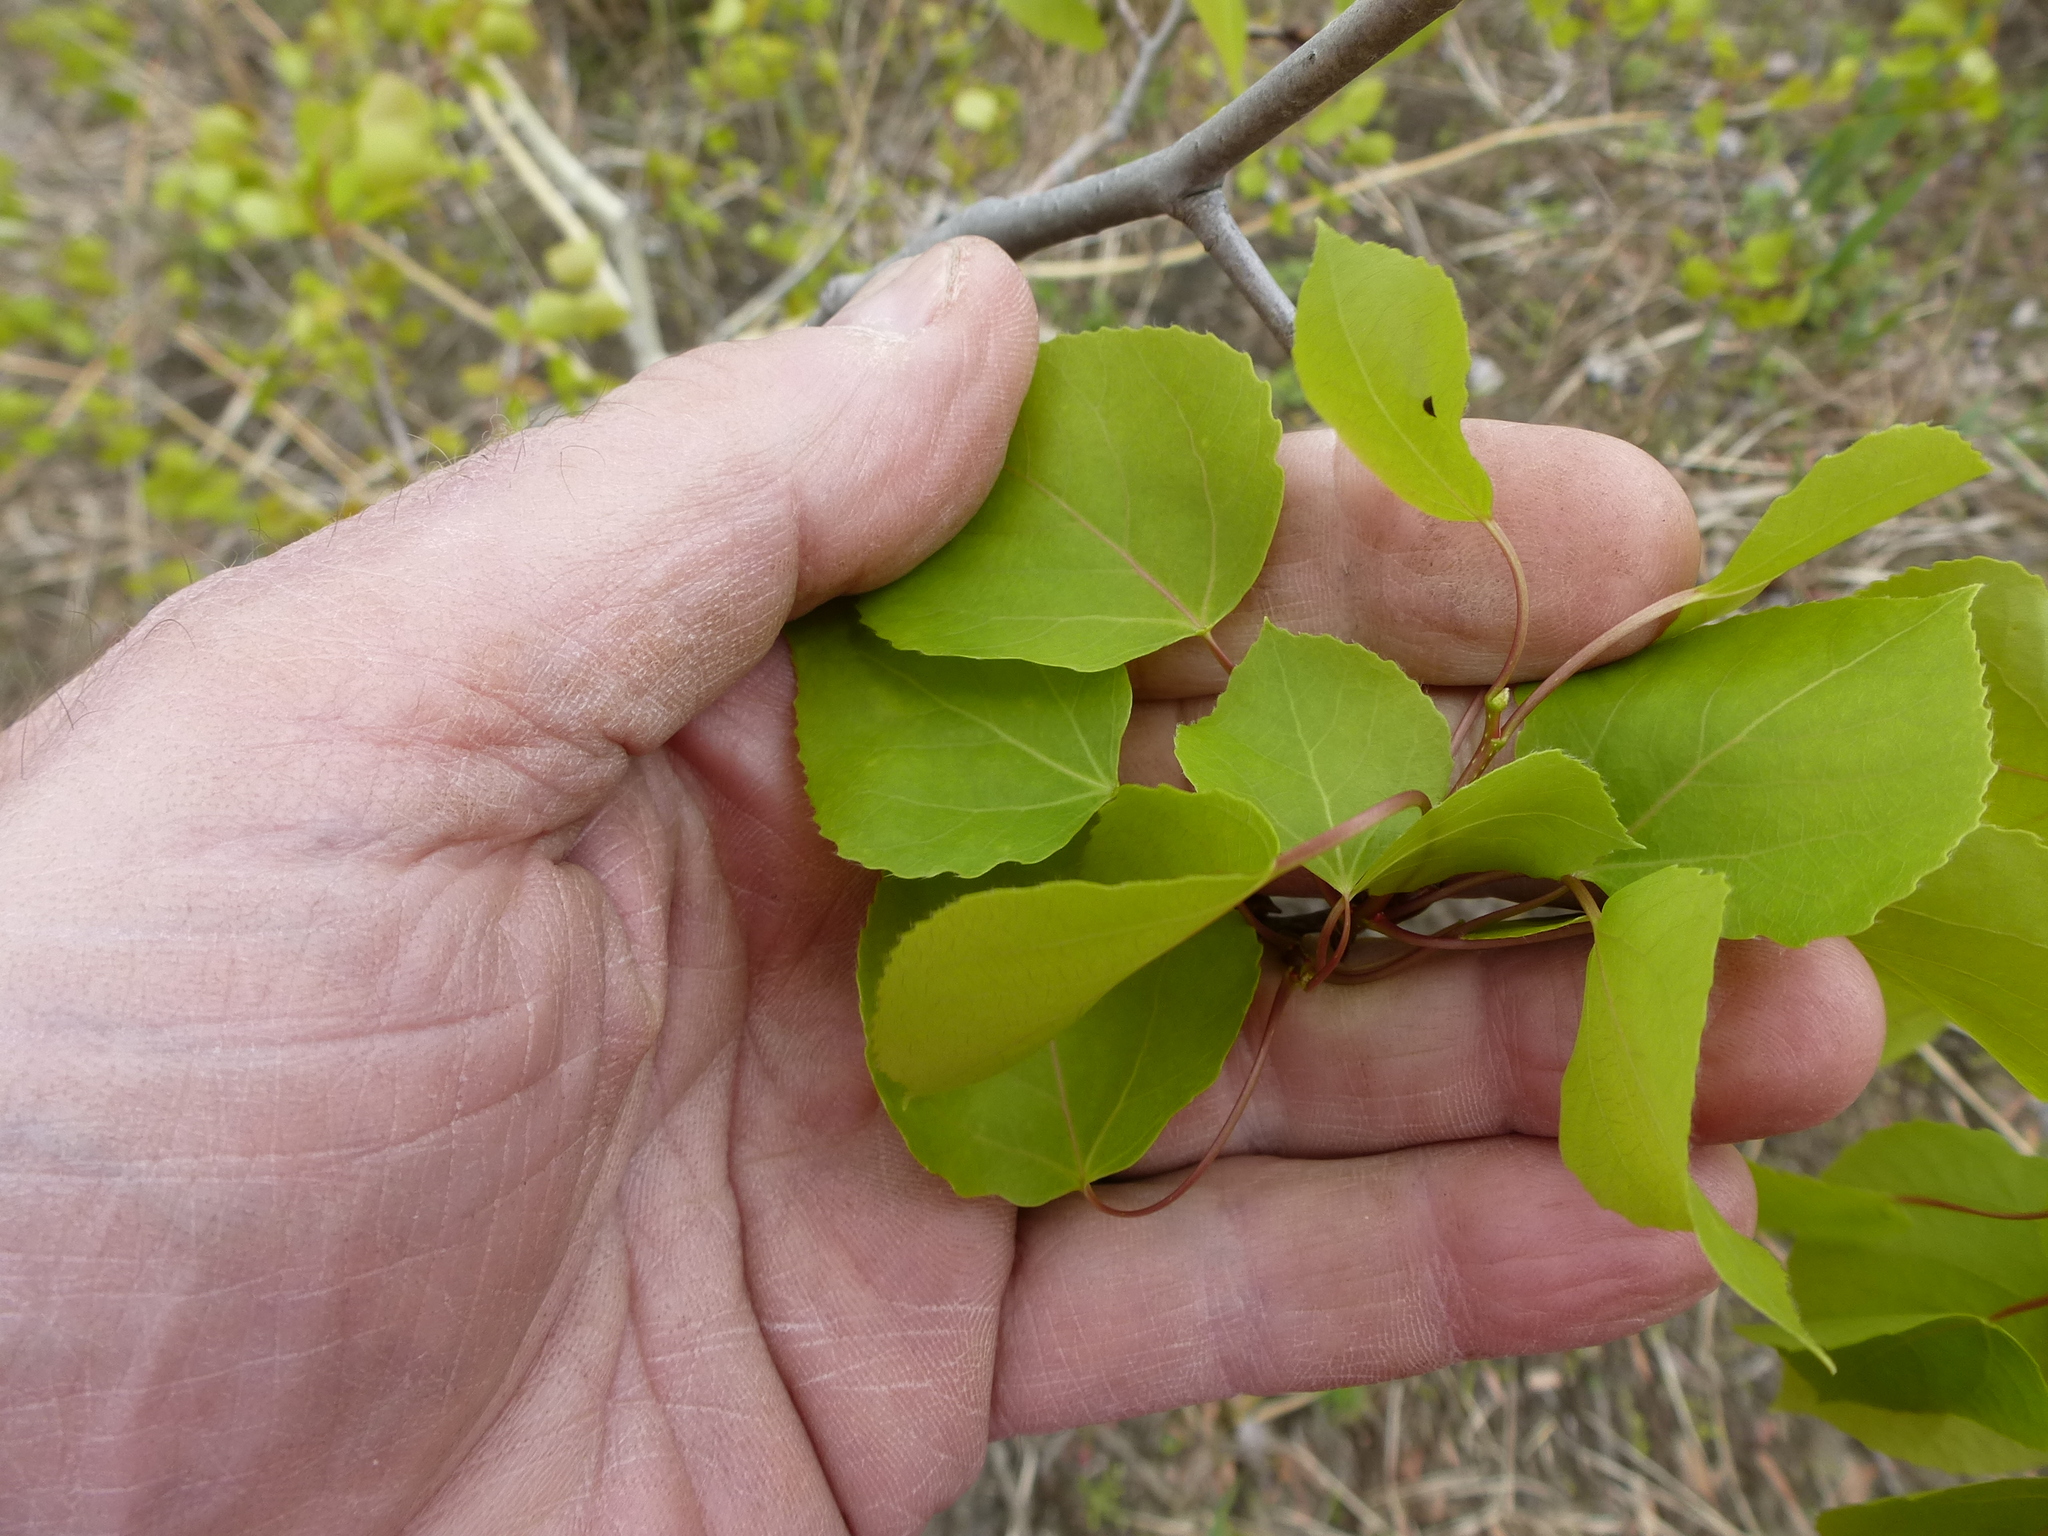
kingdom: Plantae
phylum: Tracheophyta
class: Magnoliopsida
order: Malpighiales
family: Salicaceae
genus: Populus
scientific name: Populus tremuloides
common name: Quaking aspen
